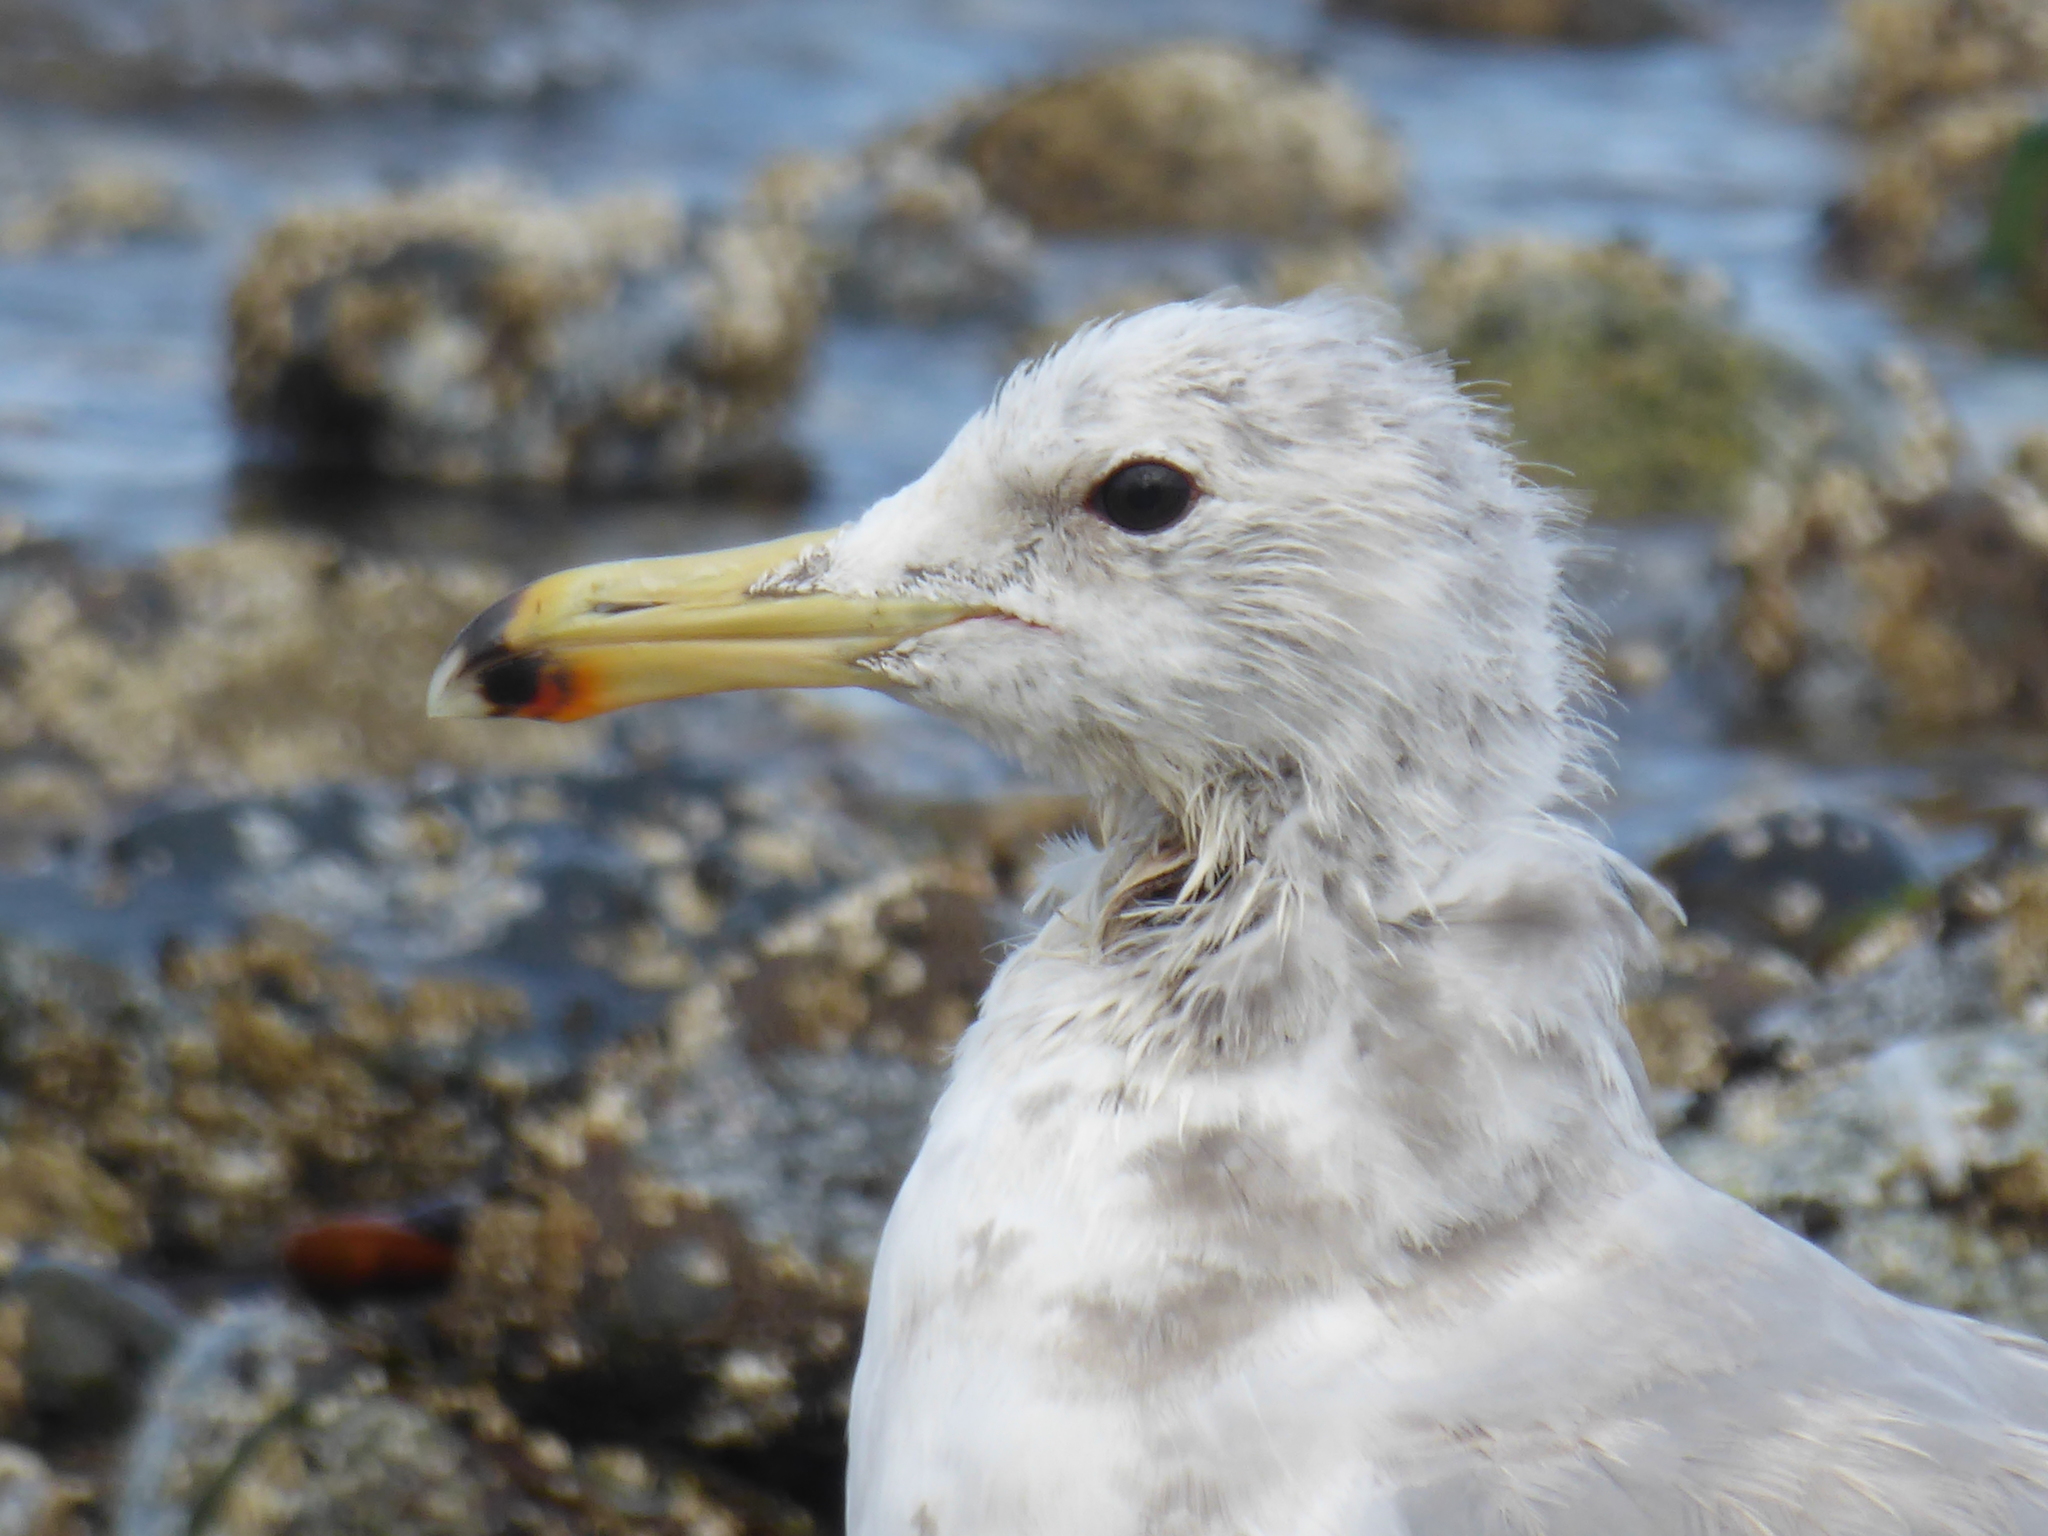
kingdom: Animalia
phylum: Chordata
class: Aves
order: Charadriiformes
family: Laridae
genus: Larus
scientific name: Larus californicus
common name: California gull
